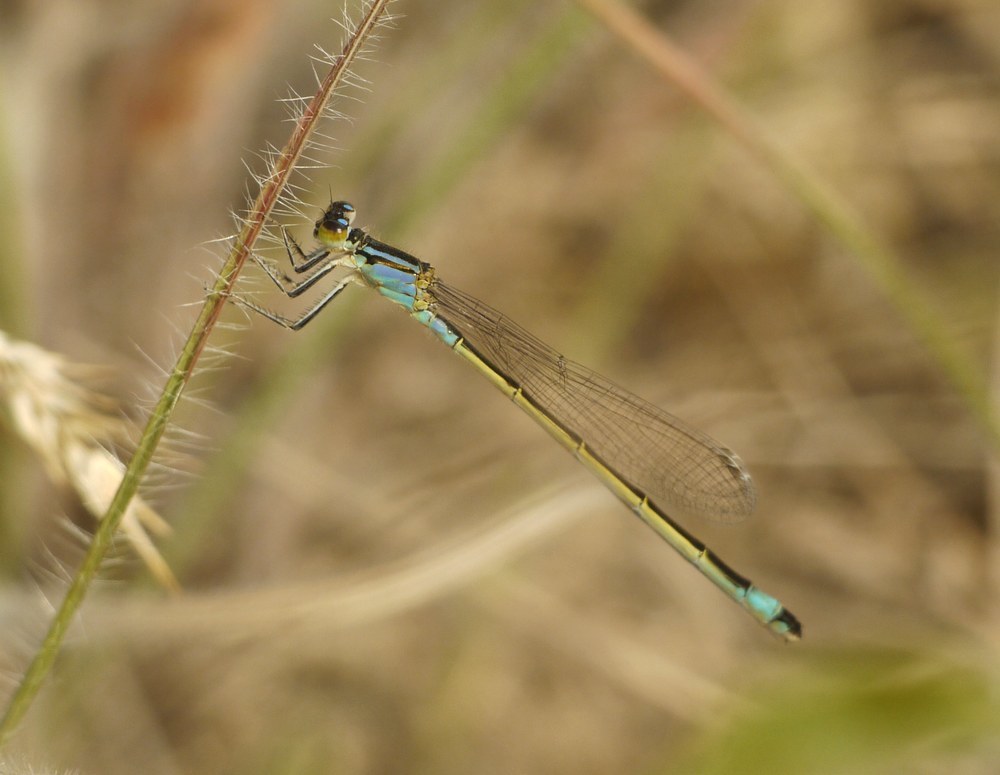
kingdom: Animalia
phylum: Arthropoda
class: Insecta
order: Odonata
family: Coenagrionidae
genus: Ischnura
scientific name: Ischnura elegans
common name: Blue-tailed damselfly
